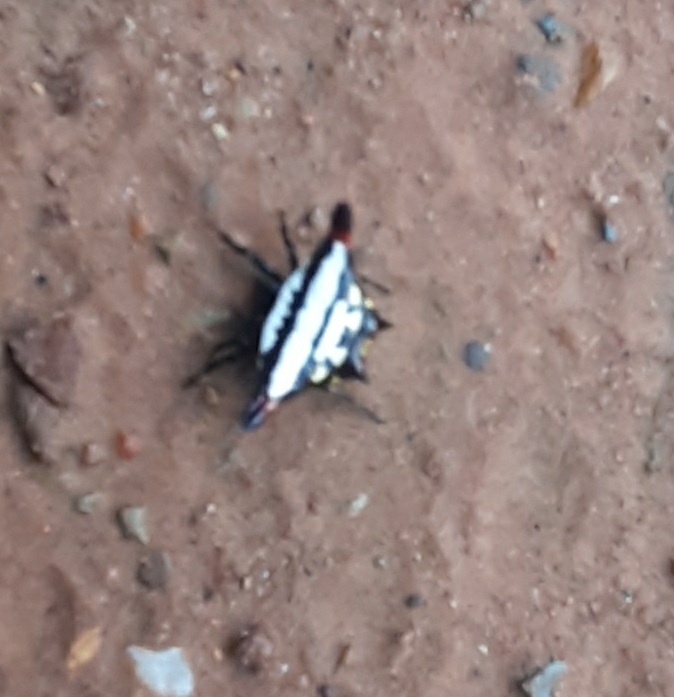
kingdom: Animalia
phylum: Arthropoda
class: Arachnida
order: Araneae
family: Araneidae
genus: Gasteracantha
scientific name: Gasteracantha geminata
